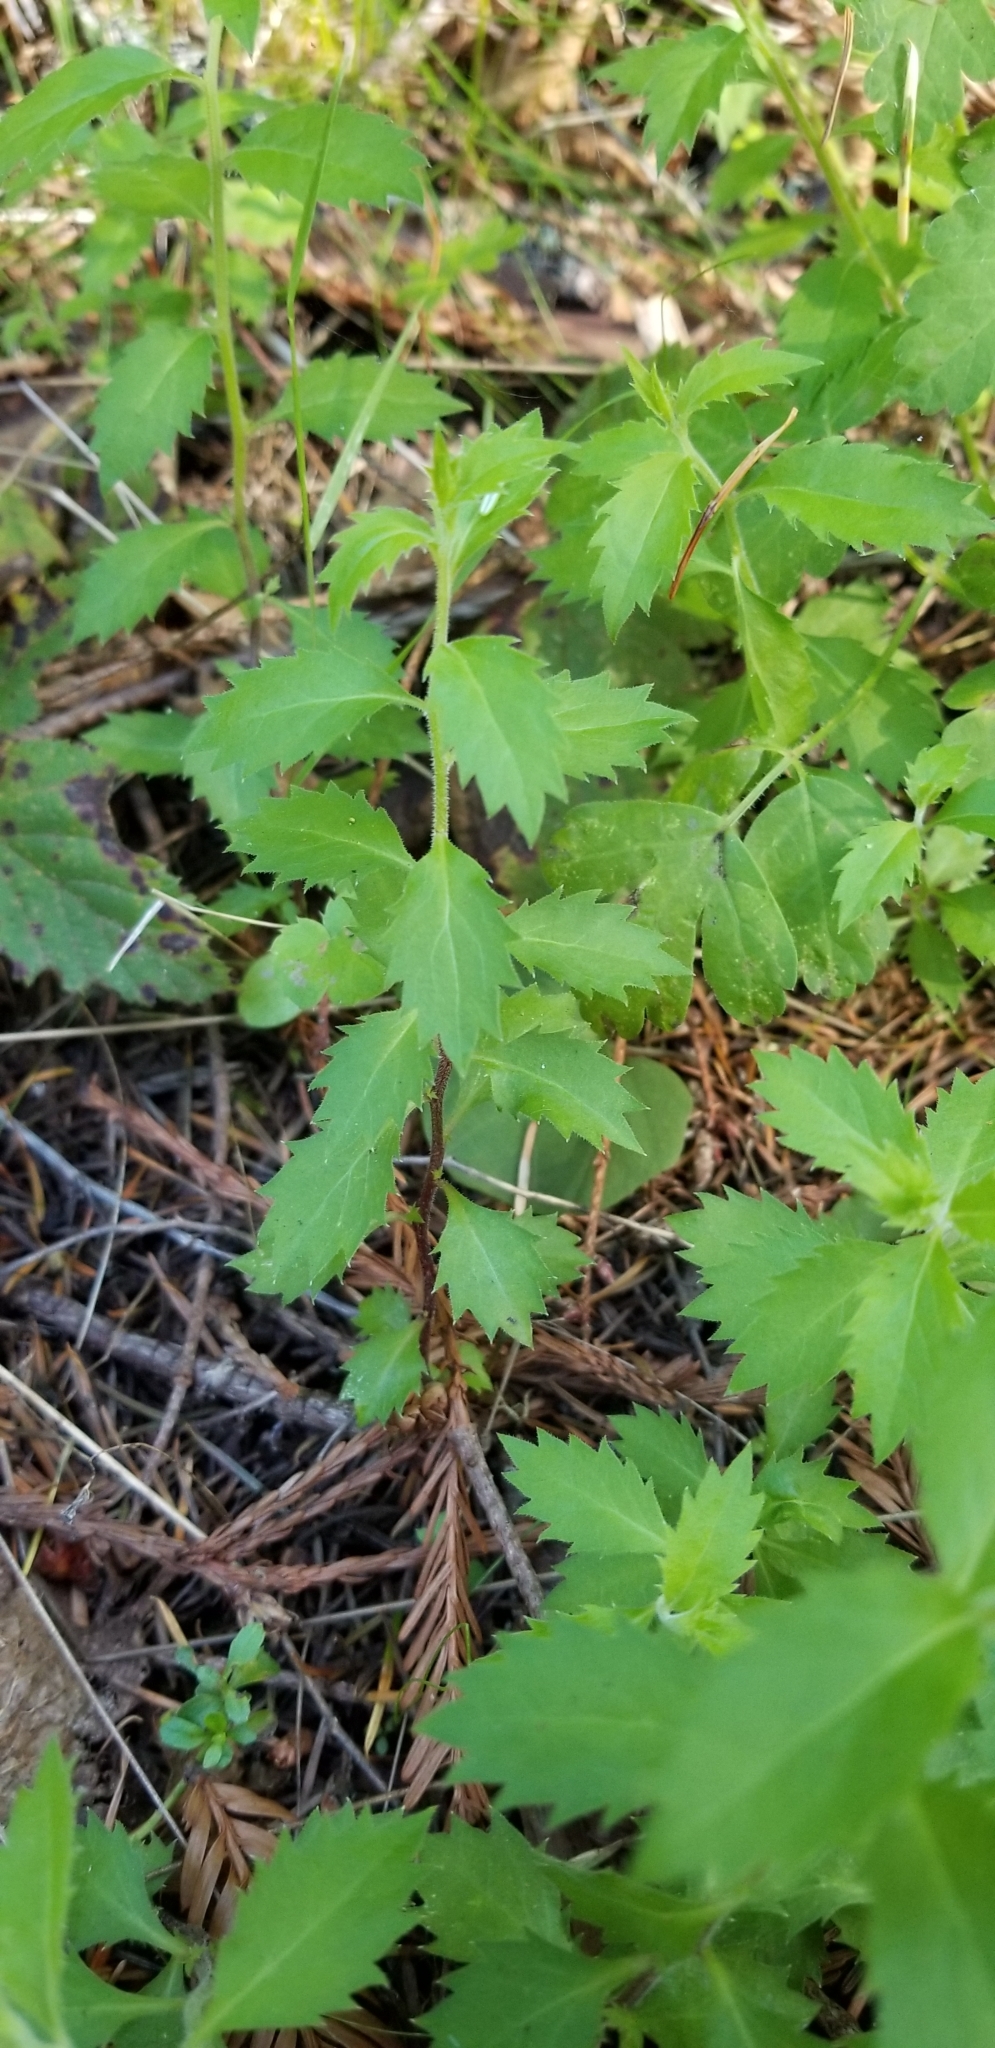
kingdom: Plantae
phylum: Tracheophyta
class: Magnoliopsida
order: Asterales
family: Campanulaceae
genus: Smithiastrum
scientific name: Smithiastrum prenanthoides
